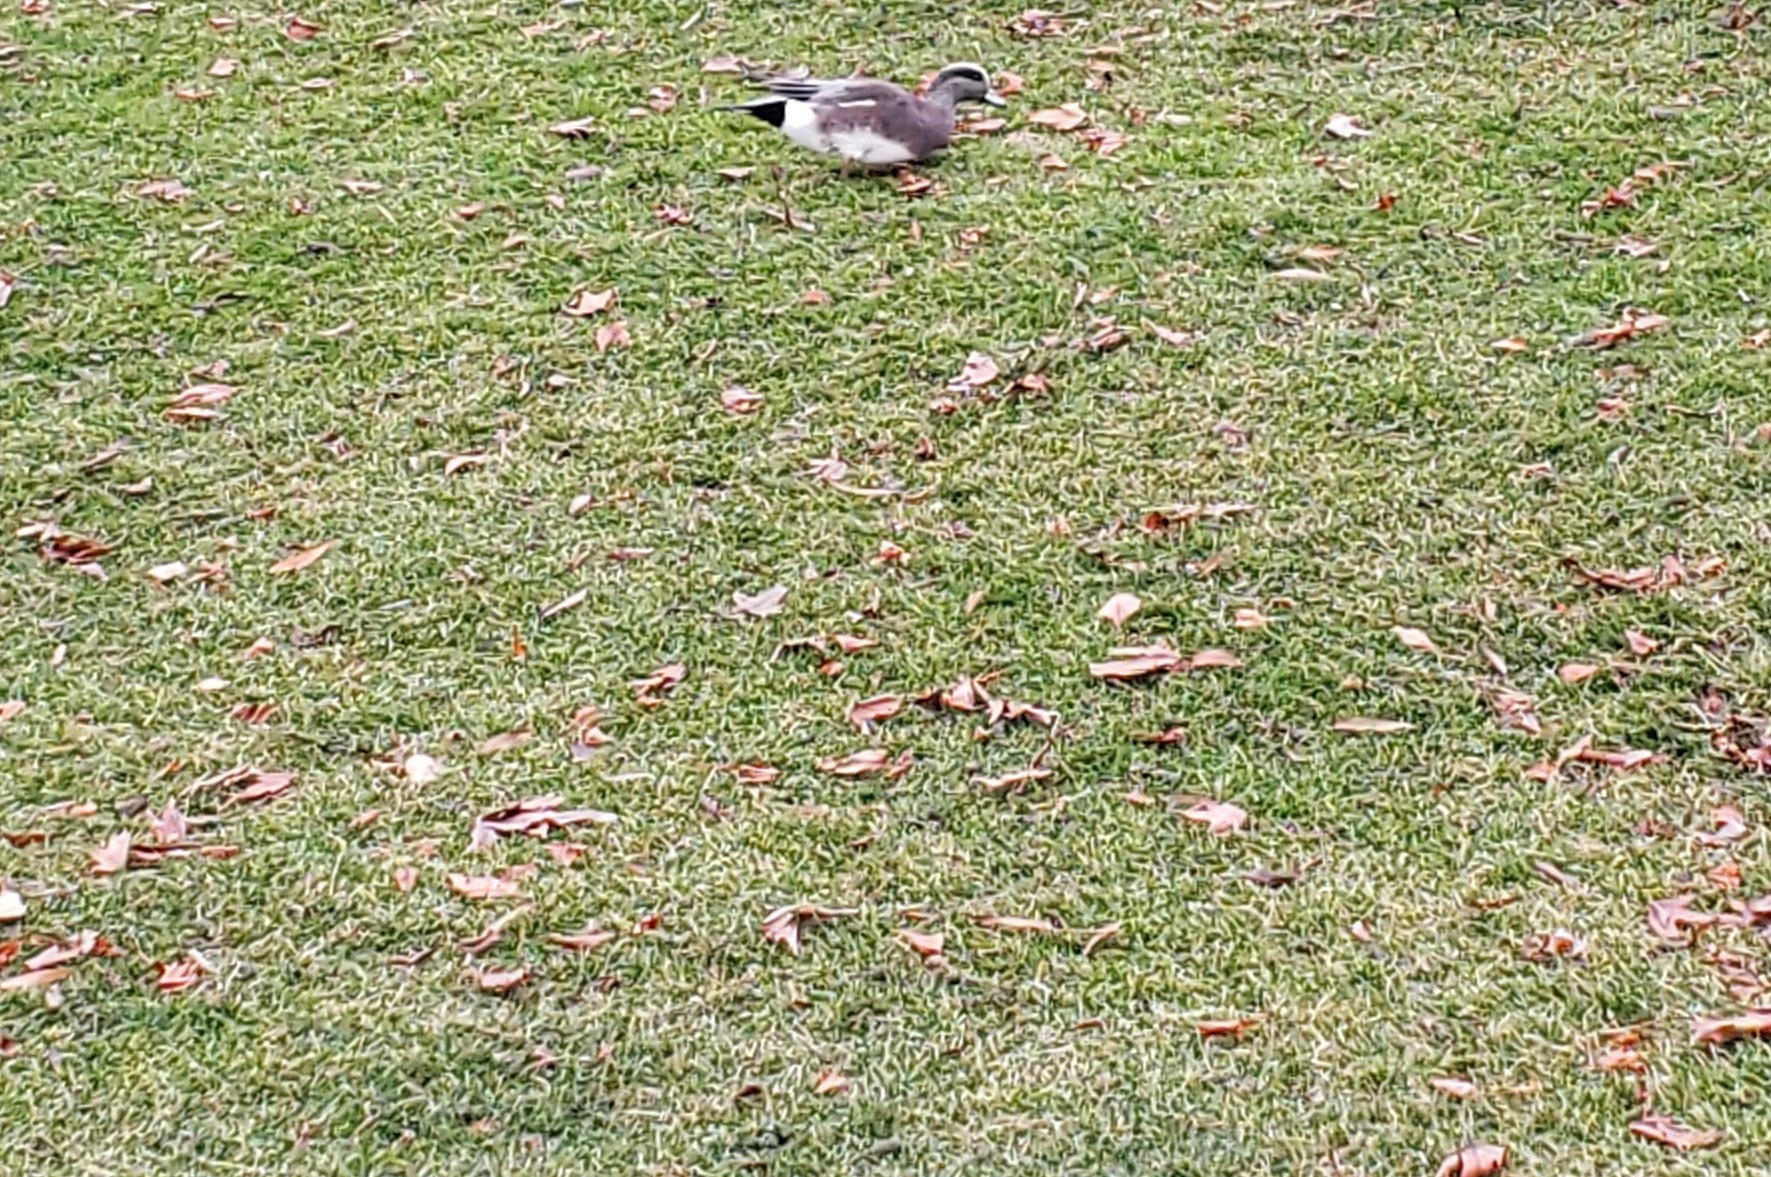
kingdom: Animalia
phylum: Chordata
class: Aves
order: Anseriformes
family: Anatidae
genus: Mareca
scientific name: Mareca americana
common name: American wigeon
